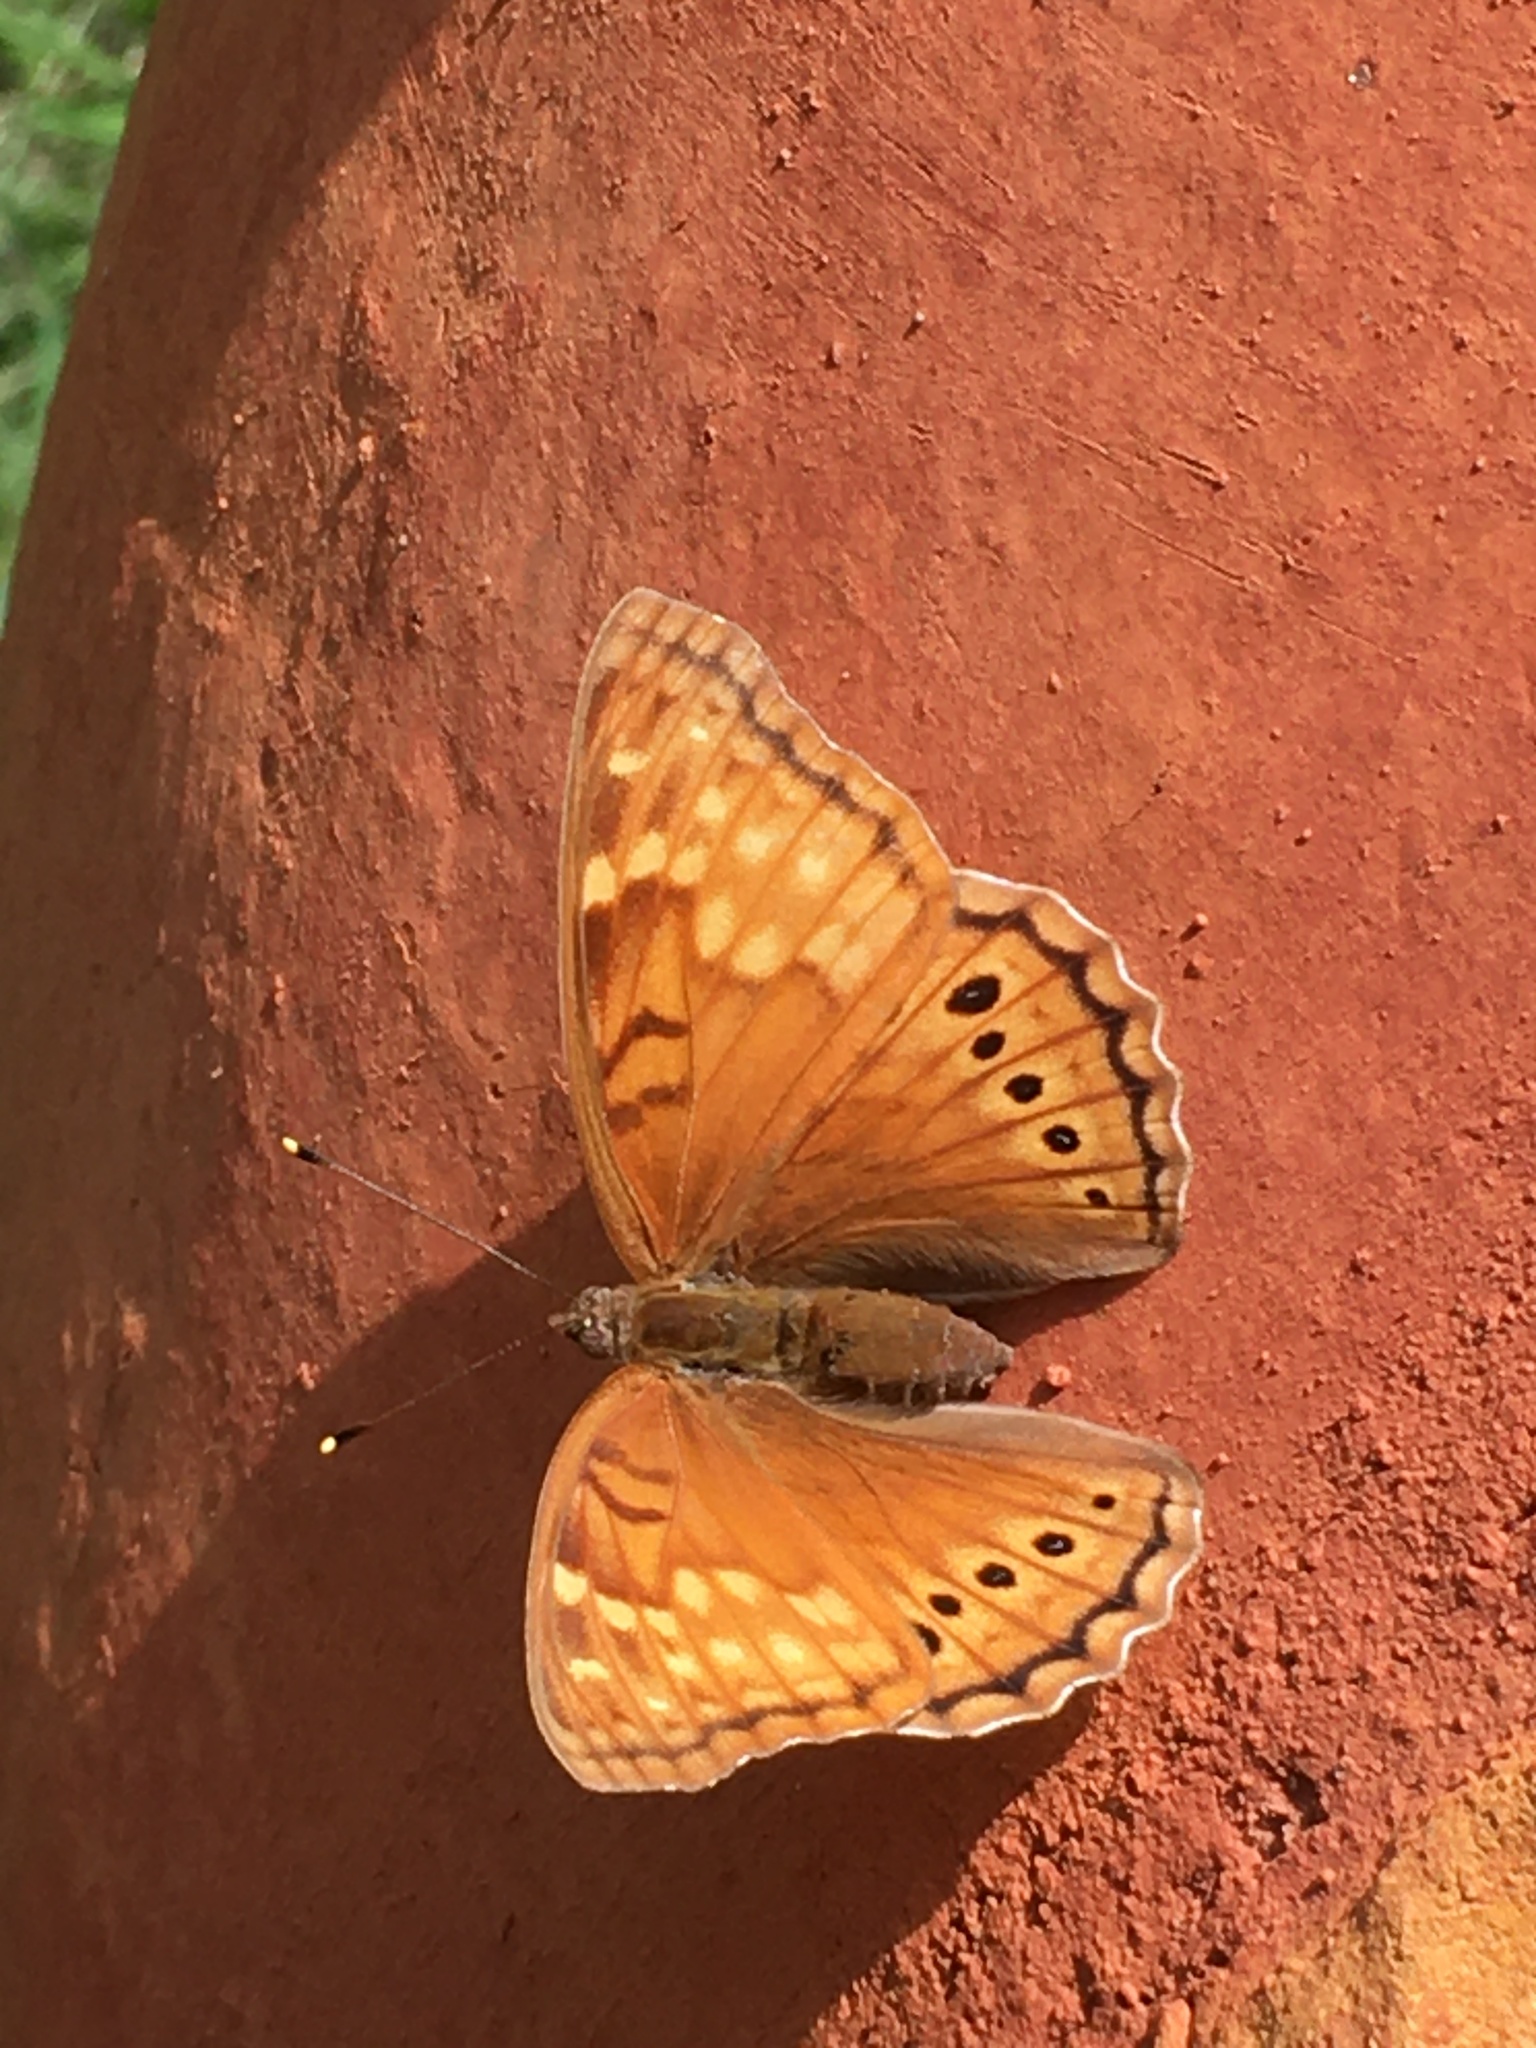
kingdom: Animalia
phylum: Arthropoda
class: Insecta
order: Lepidoptera
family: Nymphalidae
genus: Asterocampa
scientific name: Asterocampa clyton
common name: Tawny emperor
